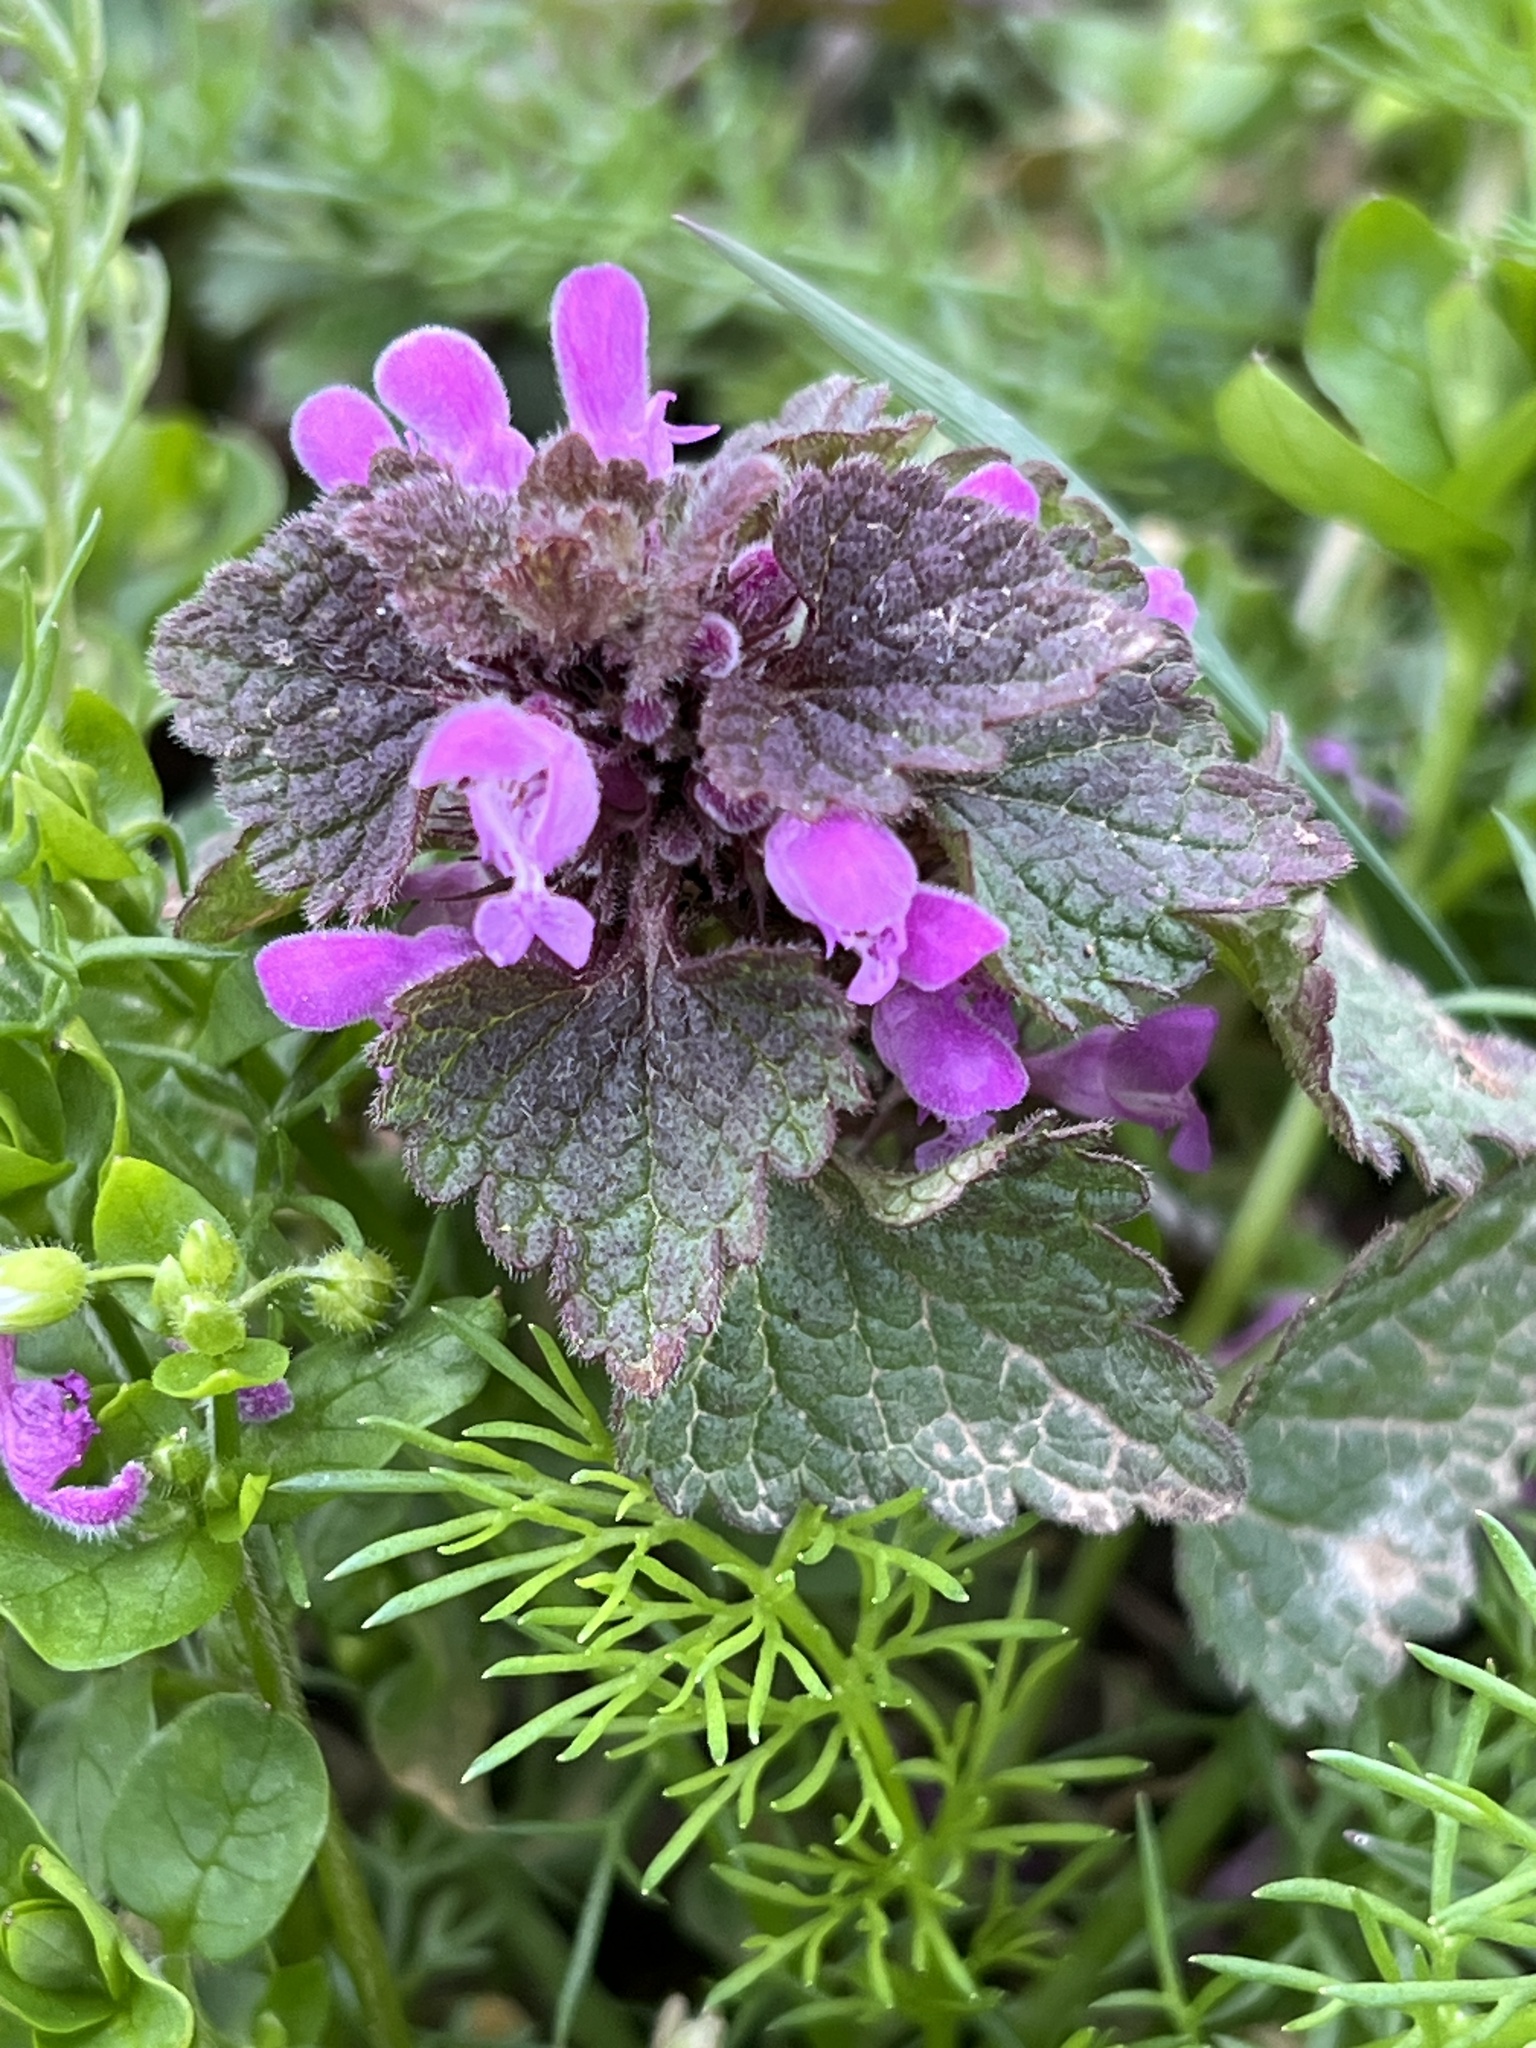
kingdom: Plantae
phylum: Tracheophyta
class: Magnoliopsida
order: Lamiales
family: Lamiaceae
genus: Lamium
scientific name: Lamium purpureum
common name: Red dead-nettle
